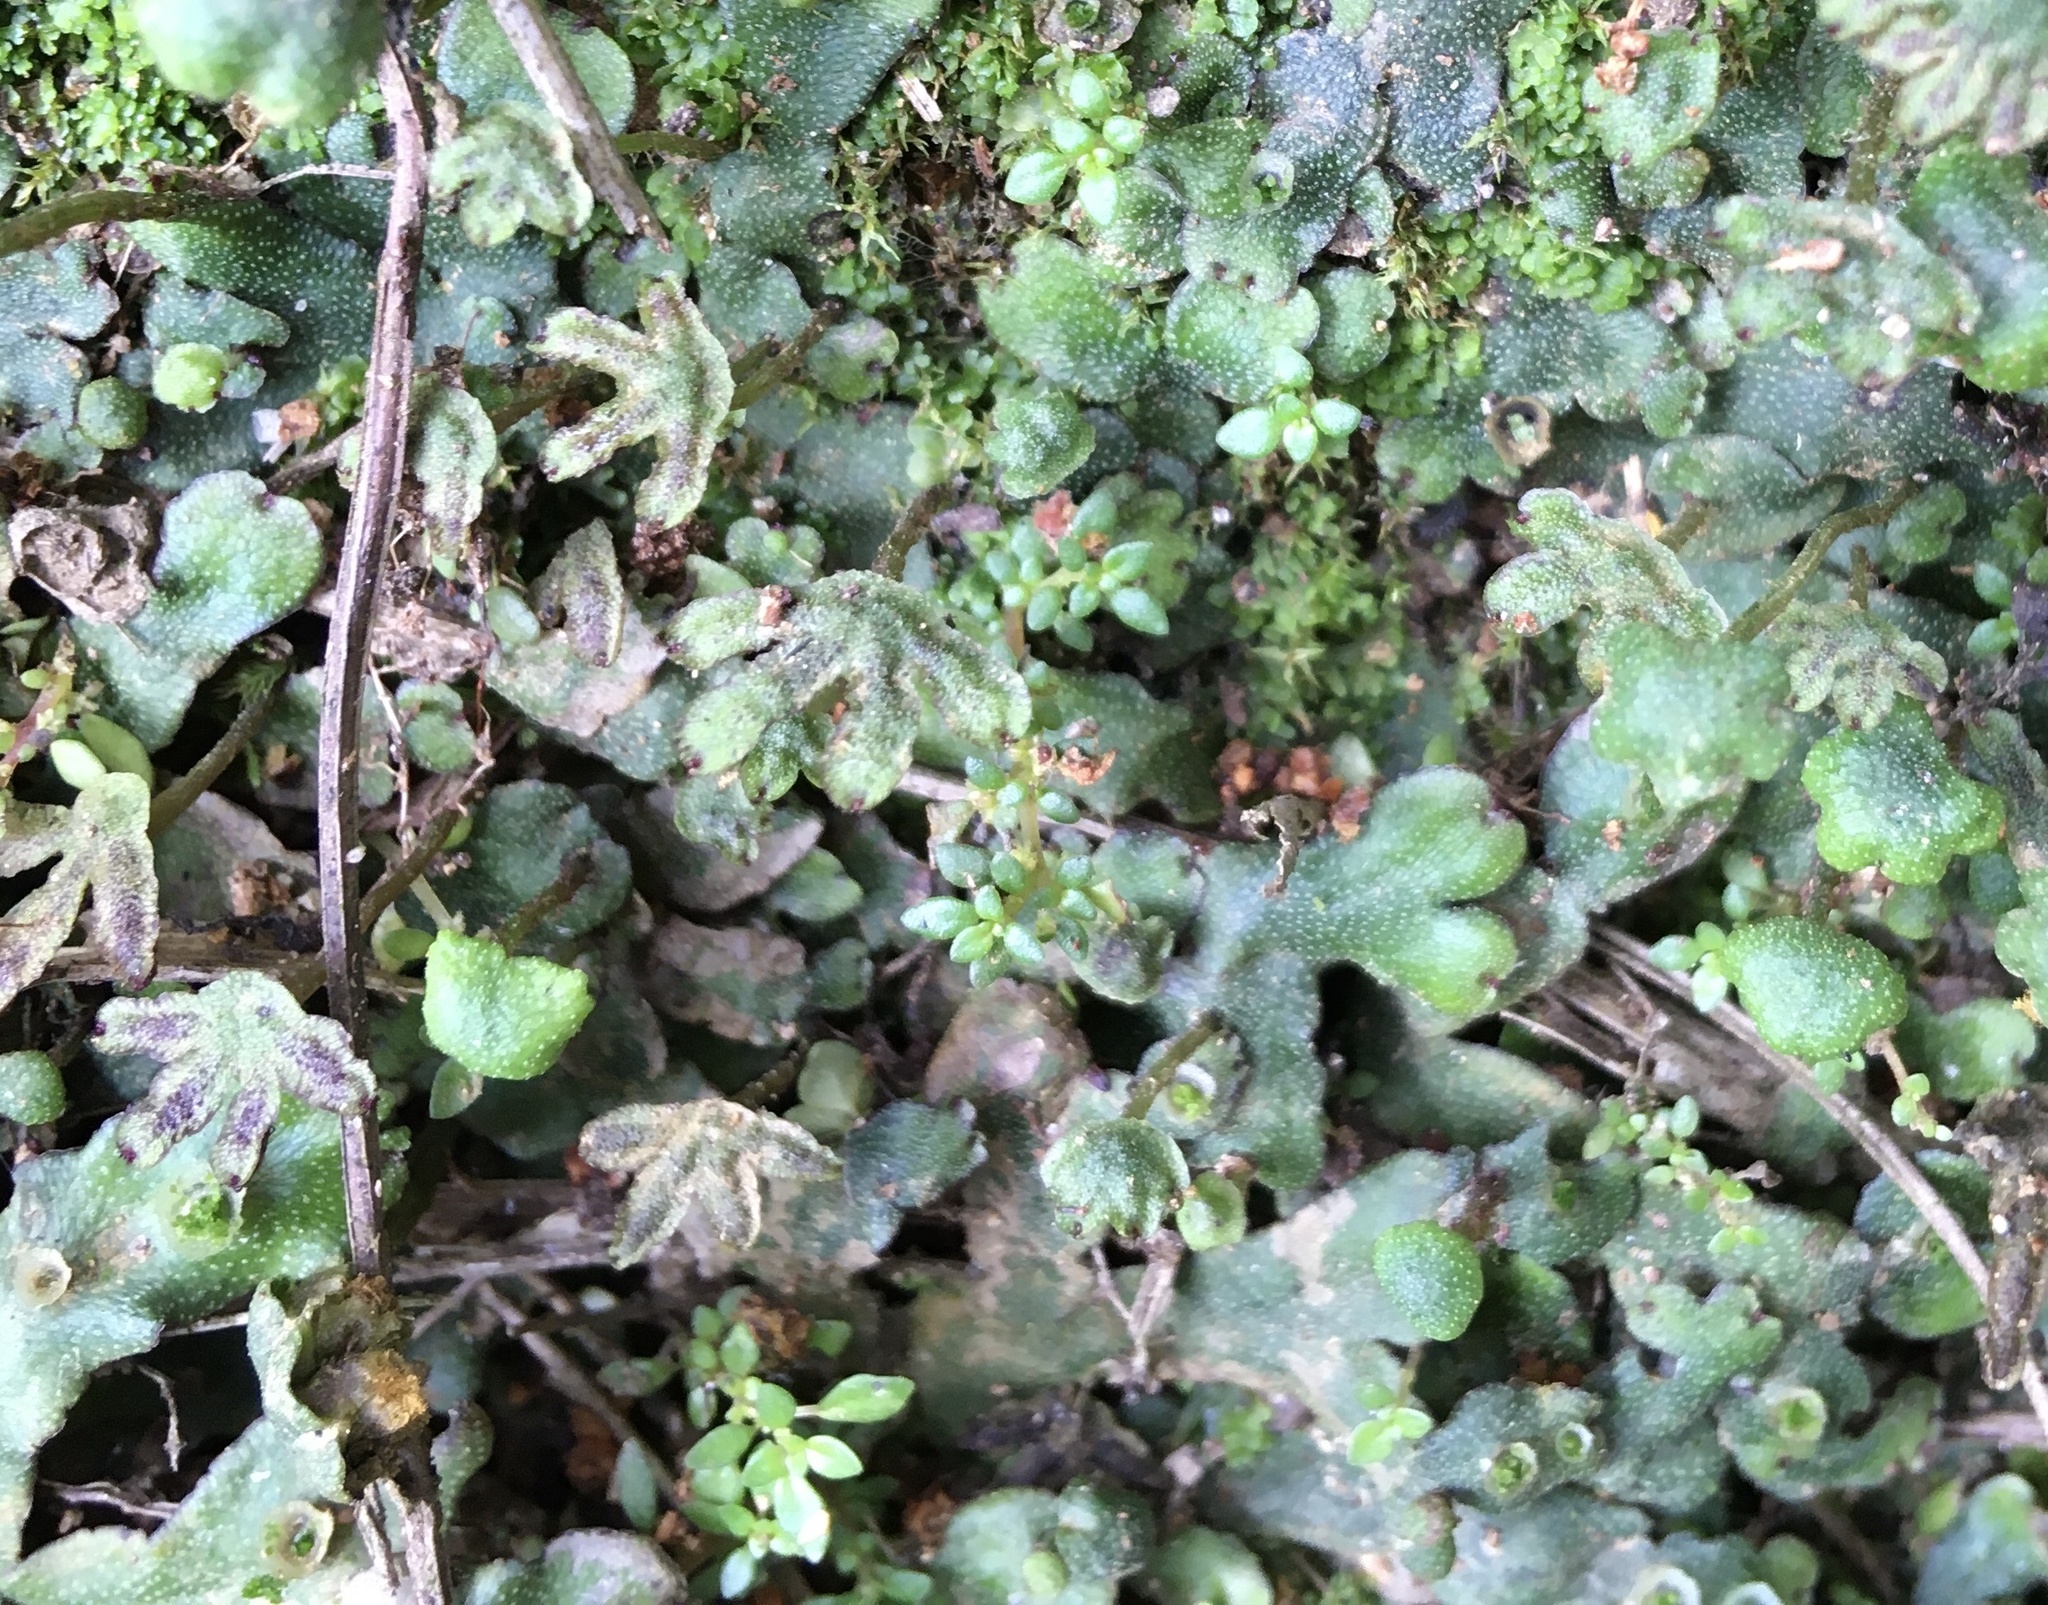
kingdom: Plantae
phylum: Marchantiophyta
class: Marchantiopsida
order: Marchantiales
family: Marchantiaceae
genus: Marchantia
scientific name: Marchantia inflexa
